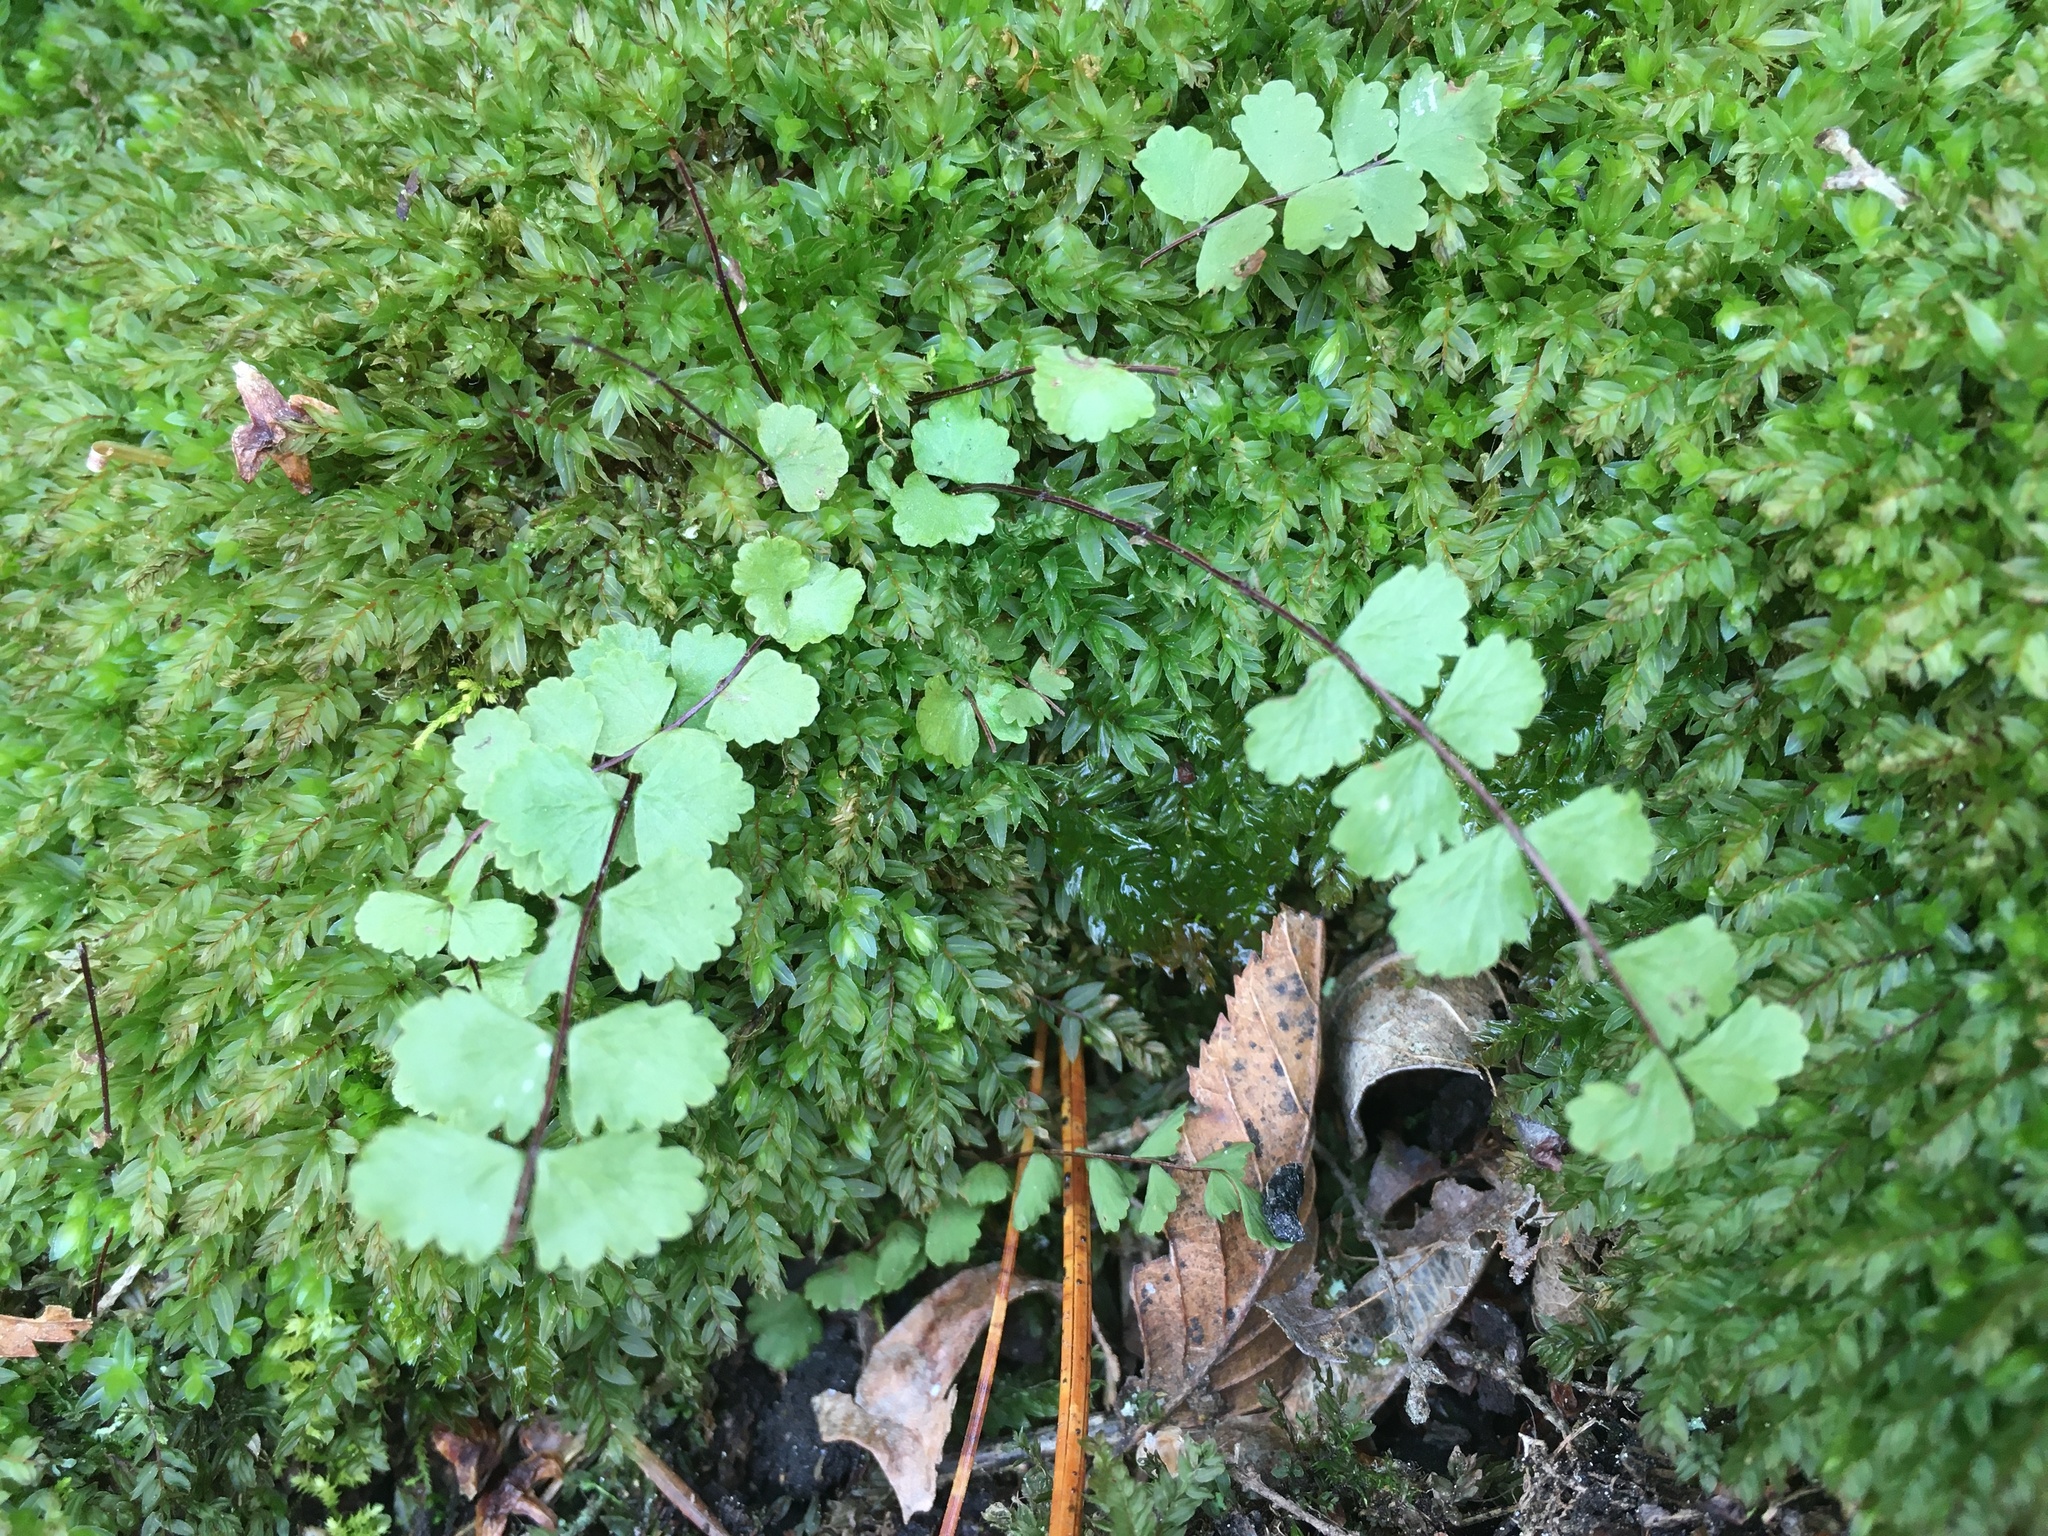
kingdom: Plantae
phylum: Tracheophyta
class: Polypodiopsida
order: Polypodiales
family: Aspleniaceae
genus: Asplenium
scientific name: Asplenium trichomanes
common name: Maidenhair spleenwort
